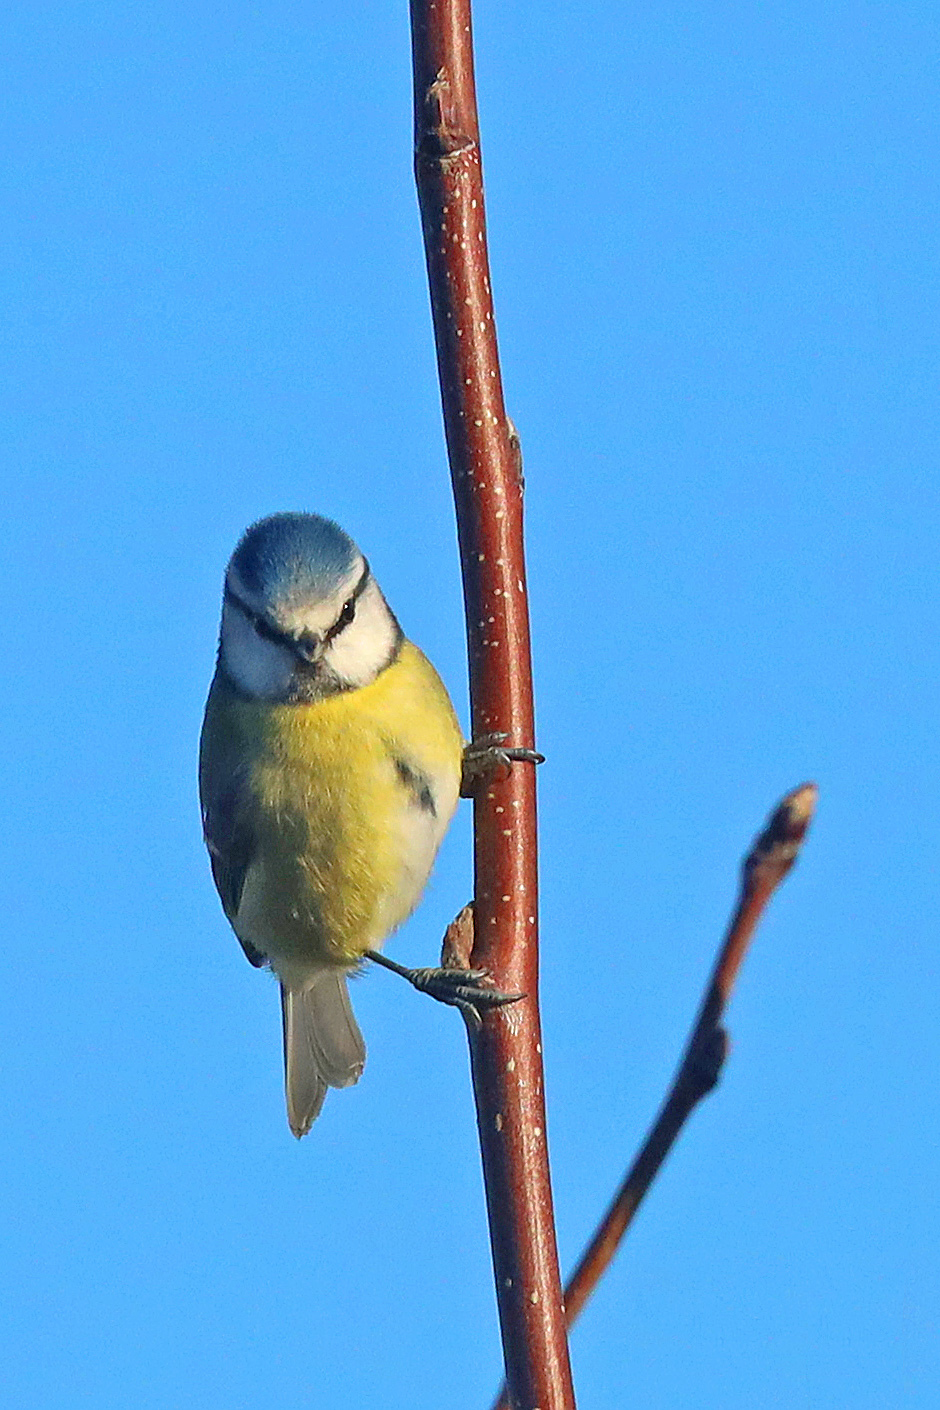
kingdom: Animalia
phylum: Chordata
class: Aves
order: Passeriformes
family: Paridae
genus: Cyanistes
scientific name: Cyanistes caeruleus
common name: Eurasian blue tit
